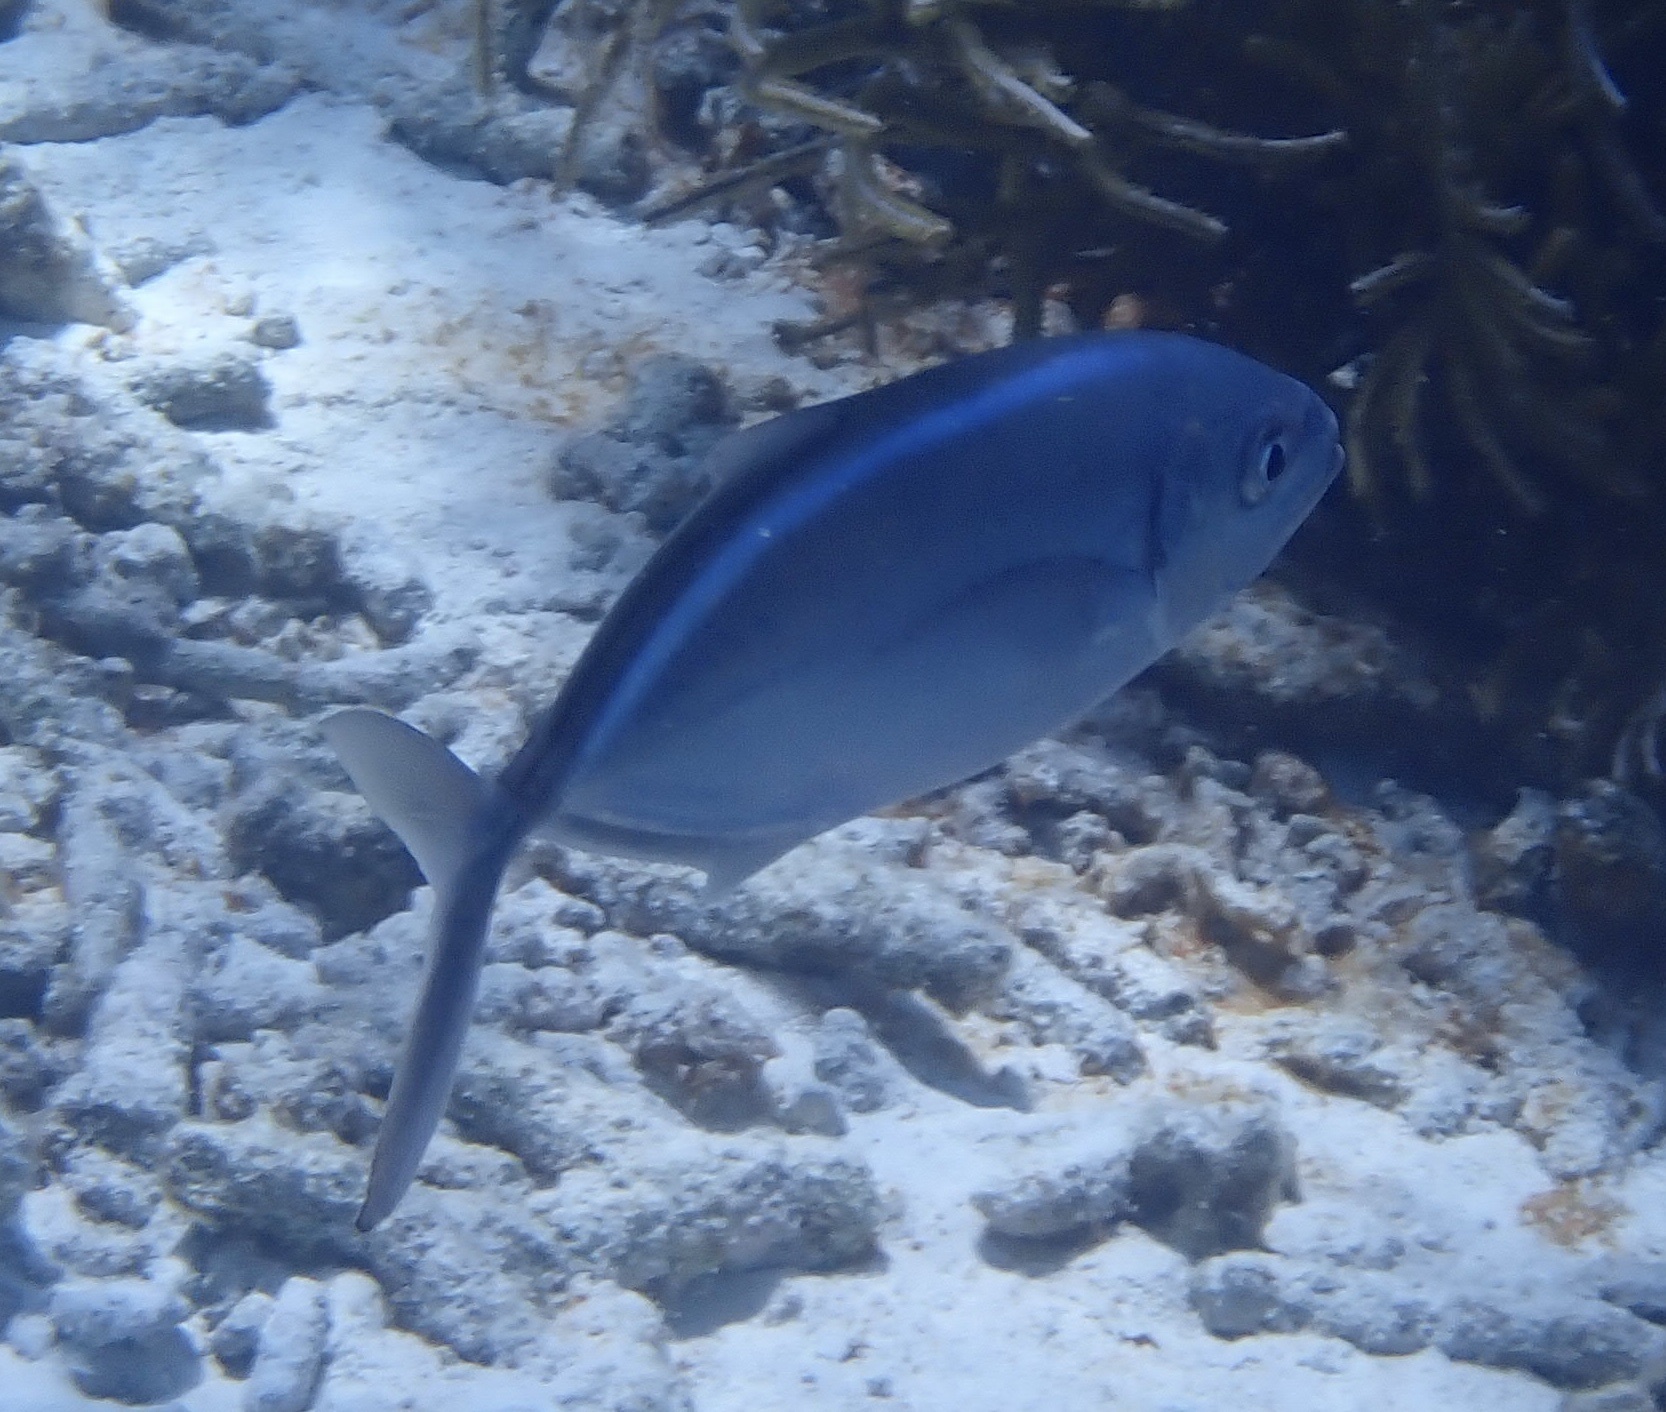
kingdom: Animalia
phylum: Chordata
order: Perciformes
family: Carangidae
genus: Caranx
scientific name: Caranx ruber
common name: Bar jack
